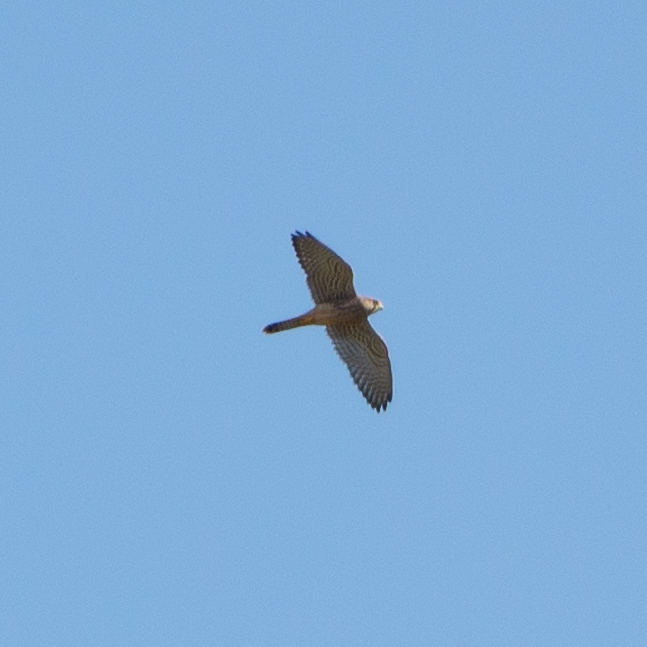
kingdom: Animalia
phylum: Chordata
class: Aves
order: Falconiformes
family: Falconidae
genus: Falco
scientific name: Falco tinnunculus
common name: Common kestrel
